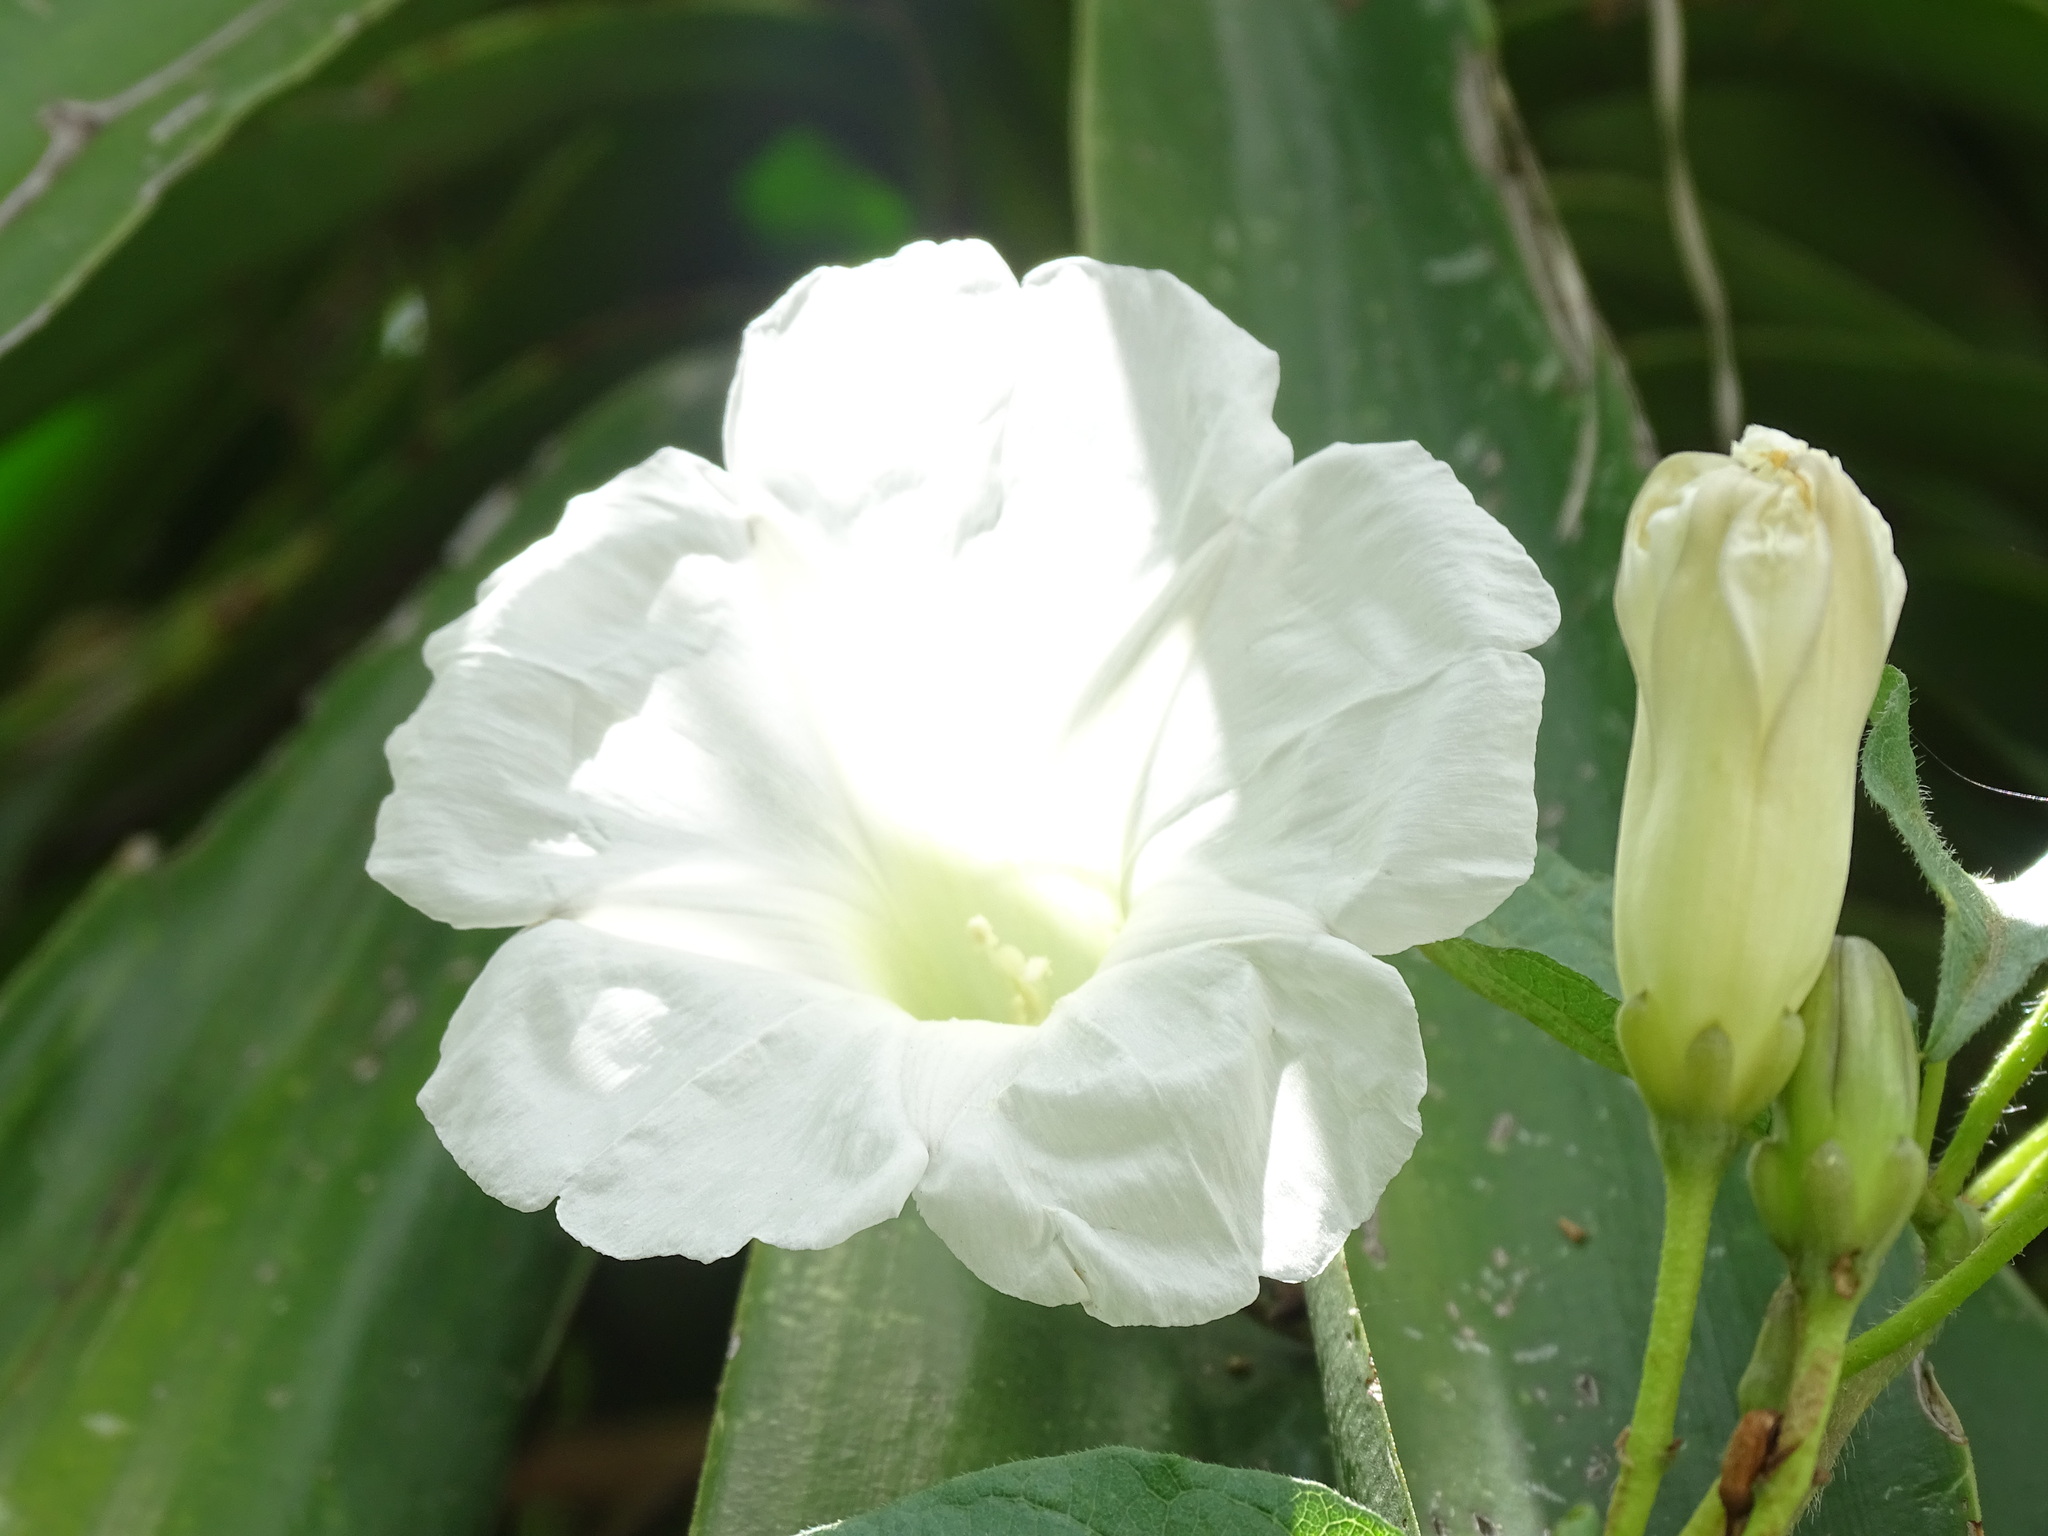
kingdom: Plantae
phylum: Tracheophyta
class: Magnoliopsida
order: Solanales
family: Convolvulaceae
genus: Ipomoea
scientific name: Ipomoea proxima
